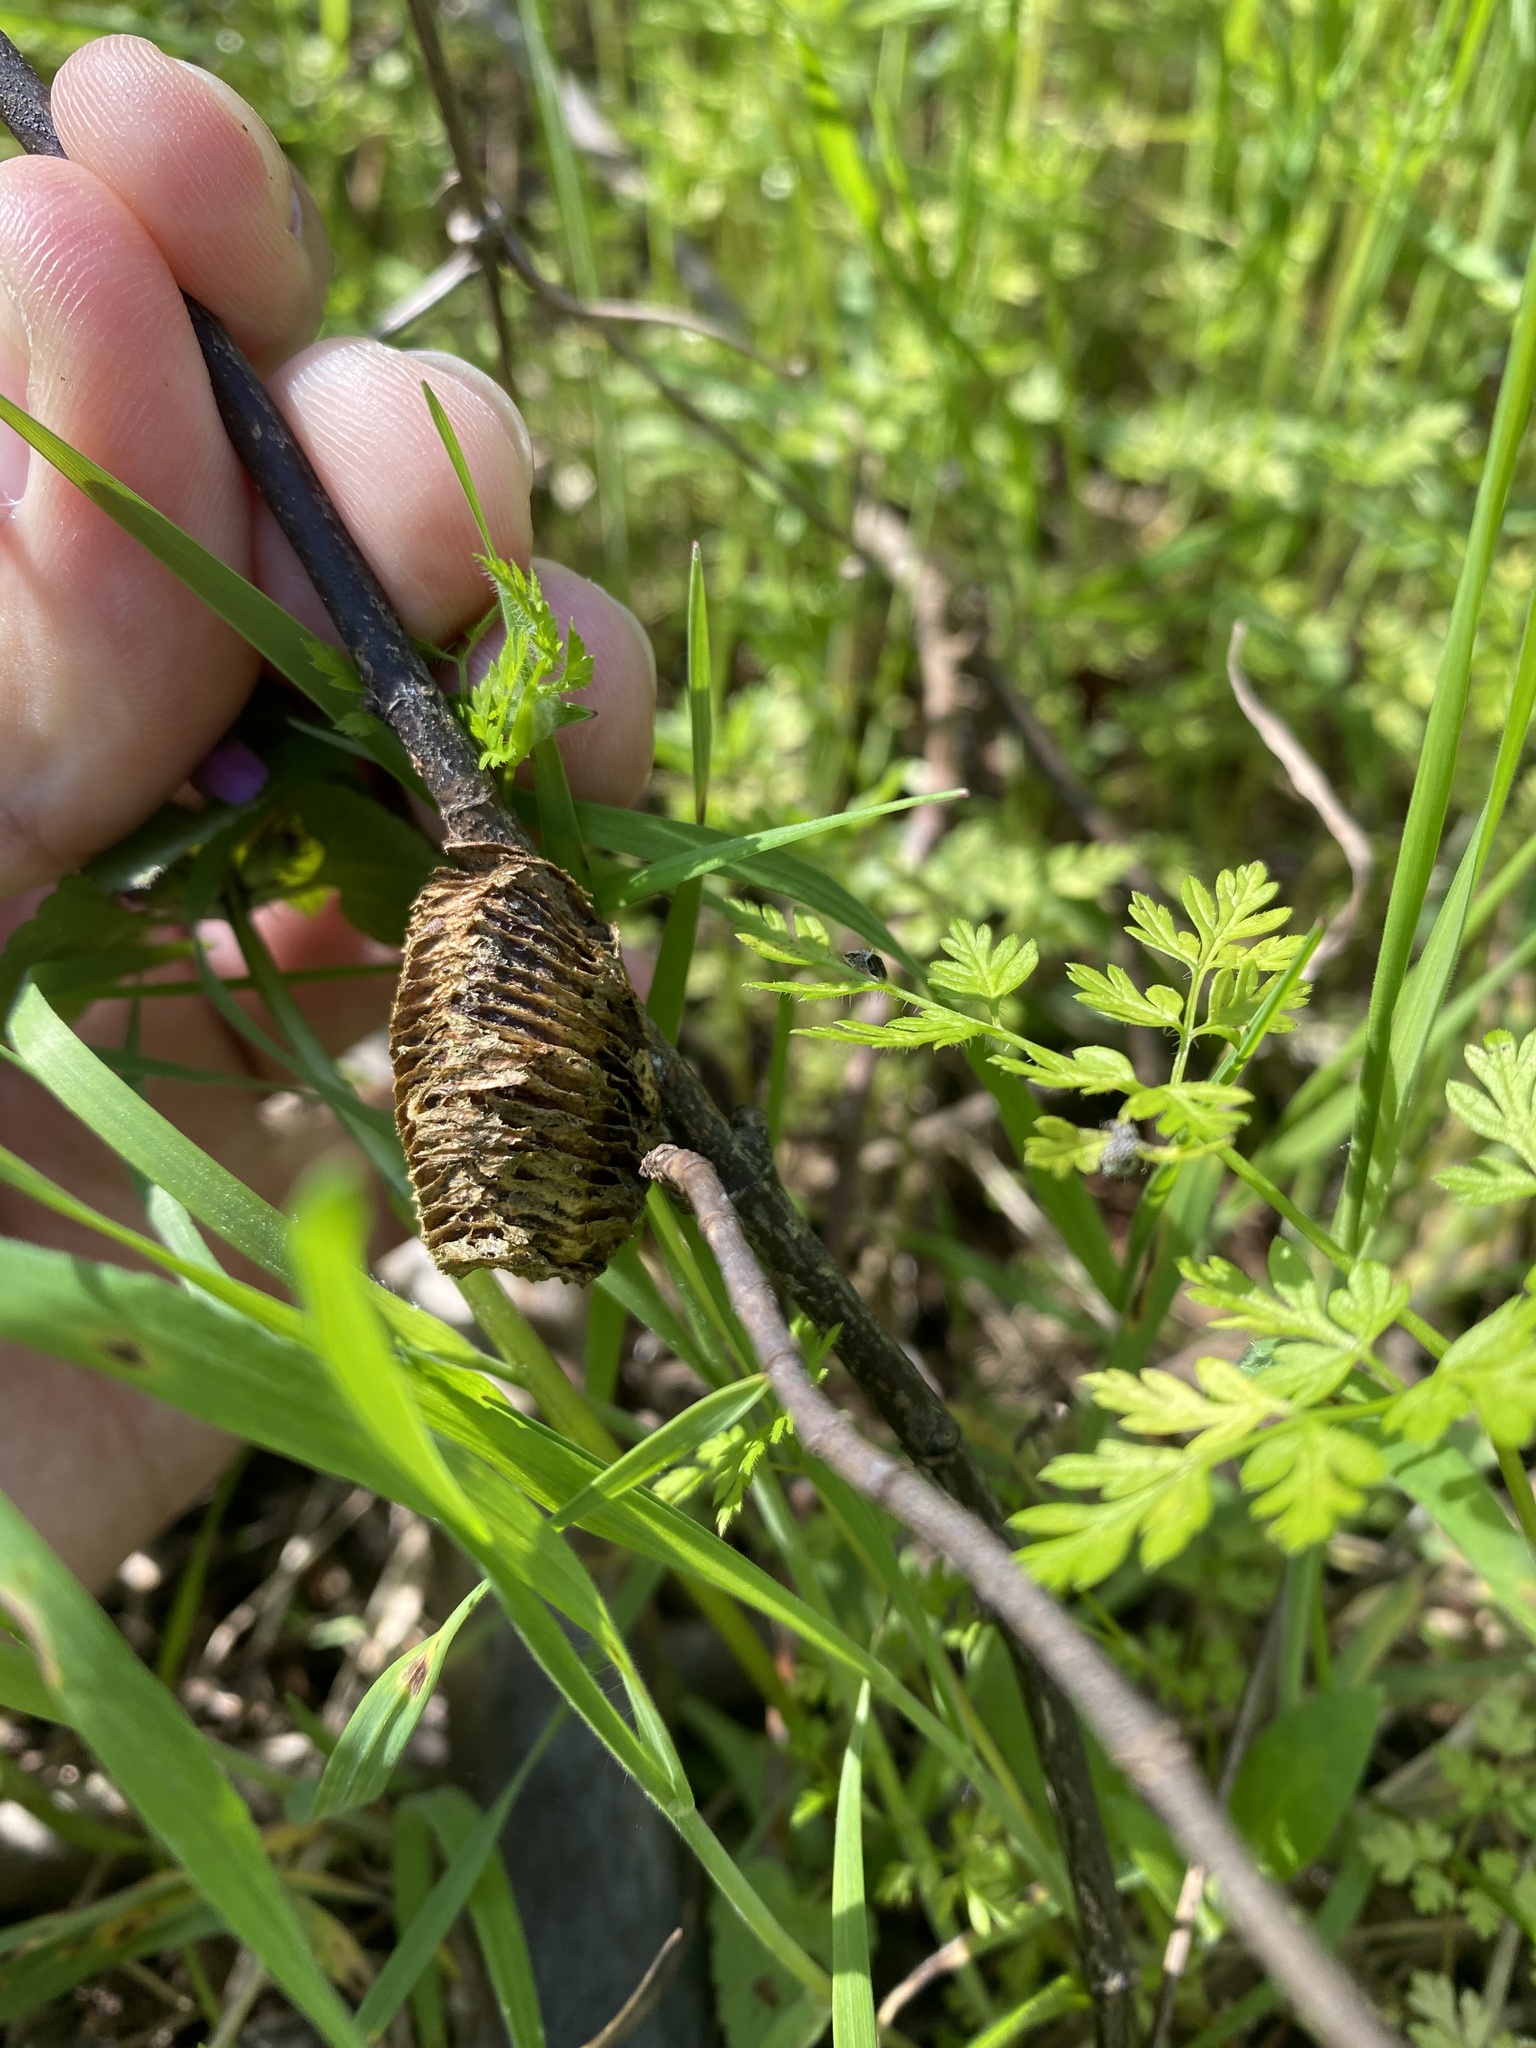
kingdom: Animalia
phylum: Arthropoda
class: Insecta
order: Mantodea
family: Mantidae
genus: Hierodula
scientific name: Hierodula transcaucasica
